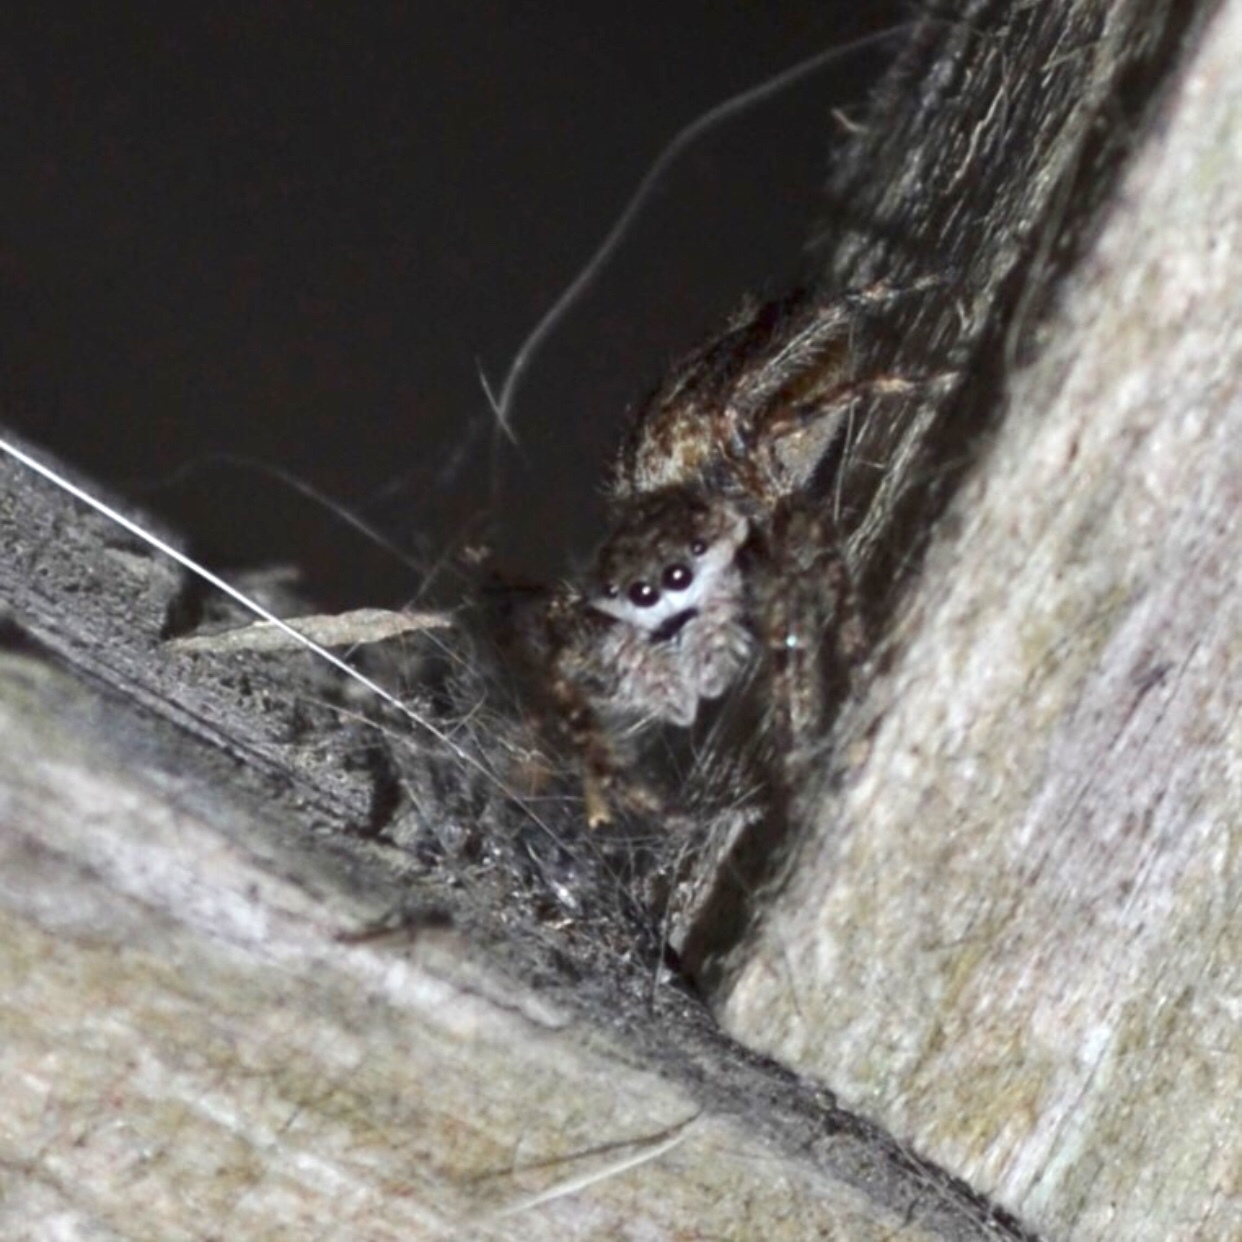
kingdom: Animalia
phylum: Arthropoda
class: Arachnida
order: Araneae
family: Salticidae
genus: Platycryptus
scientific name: Platycryptus undatus
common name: Tan jumping spider
